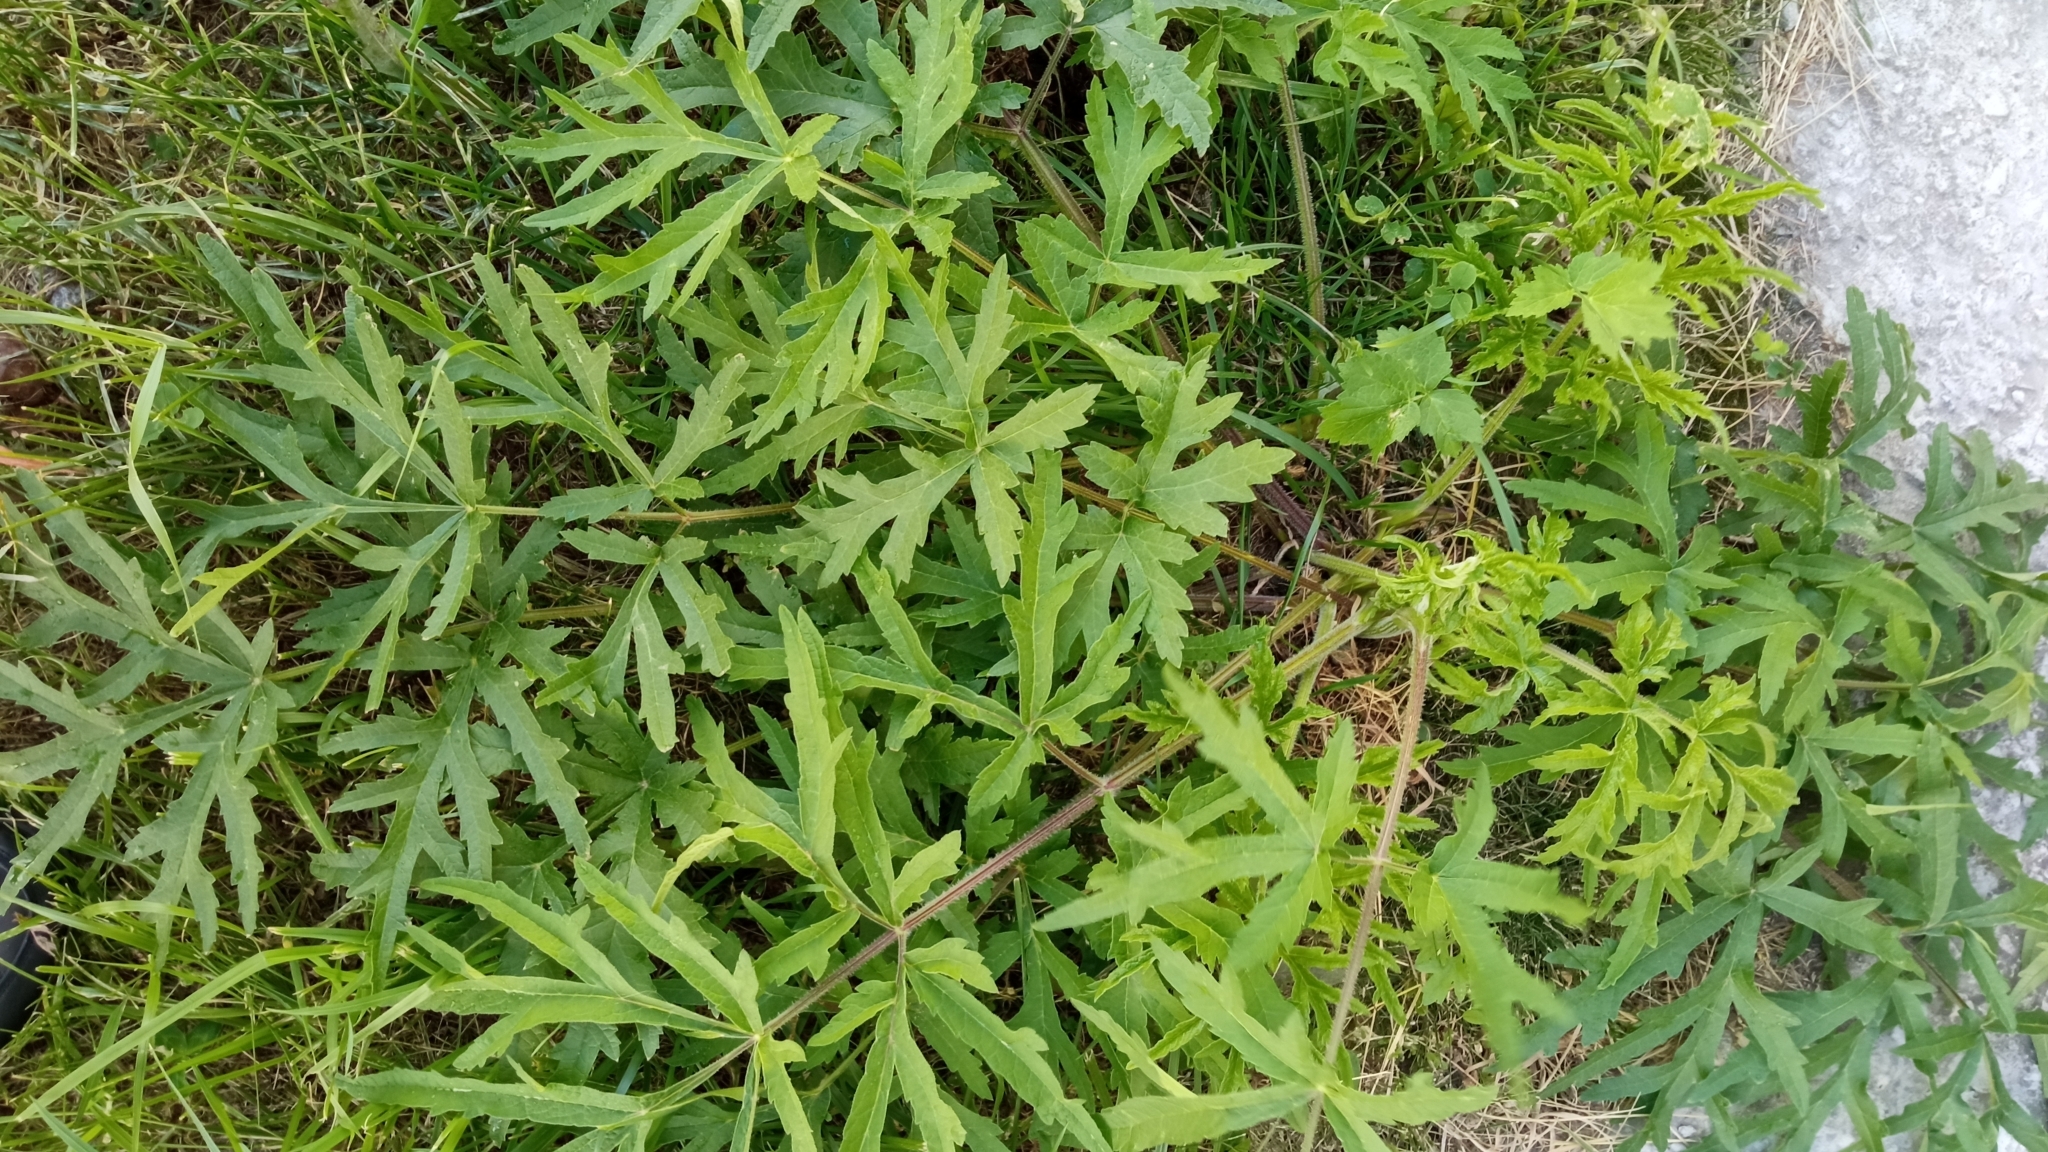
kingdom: Plantae
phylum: Tracheophyta
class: Magnoliopsida
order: Apiales
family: Apiaceae
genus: Heracleum
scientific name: Heracleum sphondylium
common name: Hogweed
